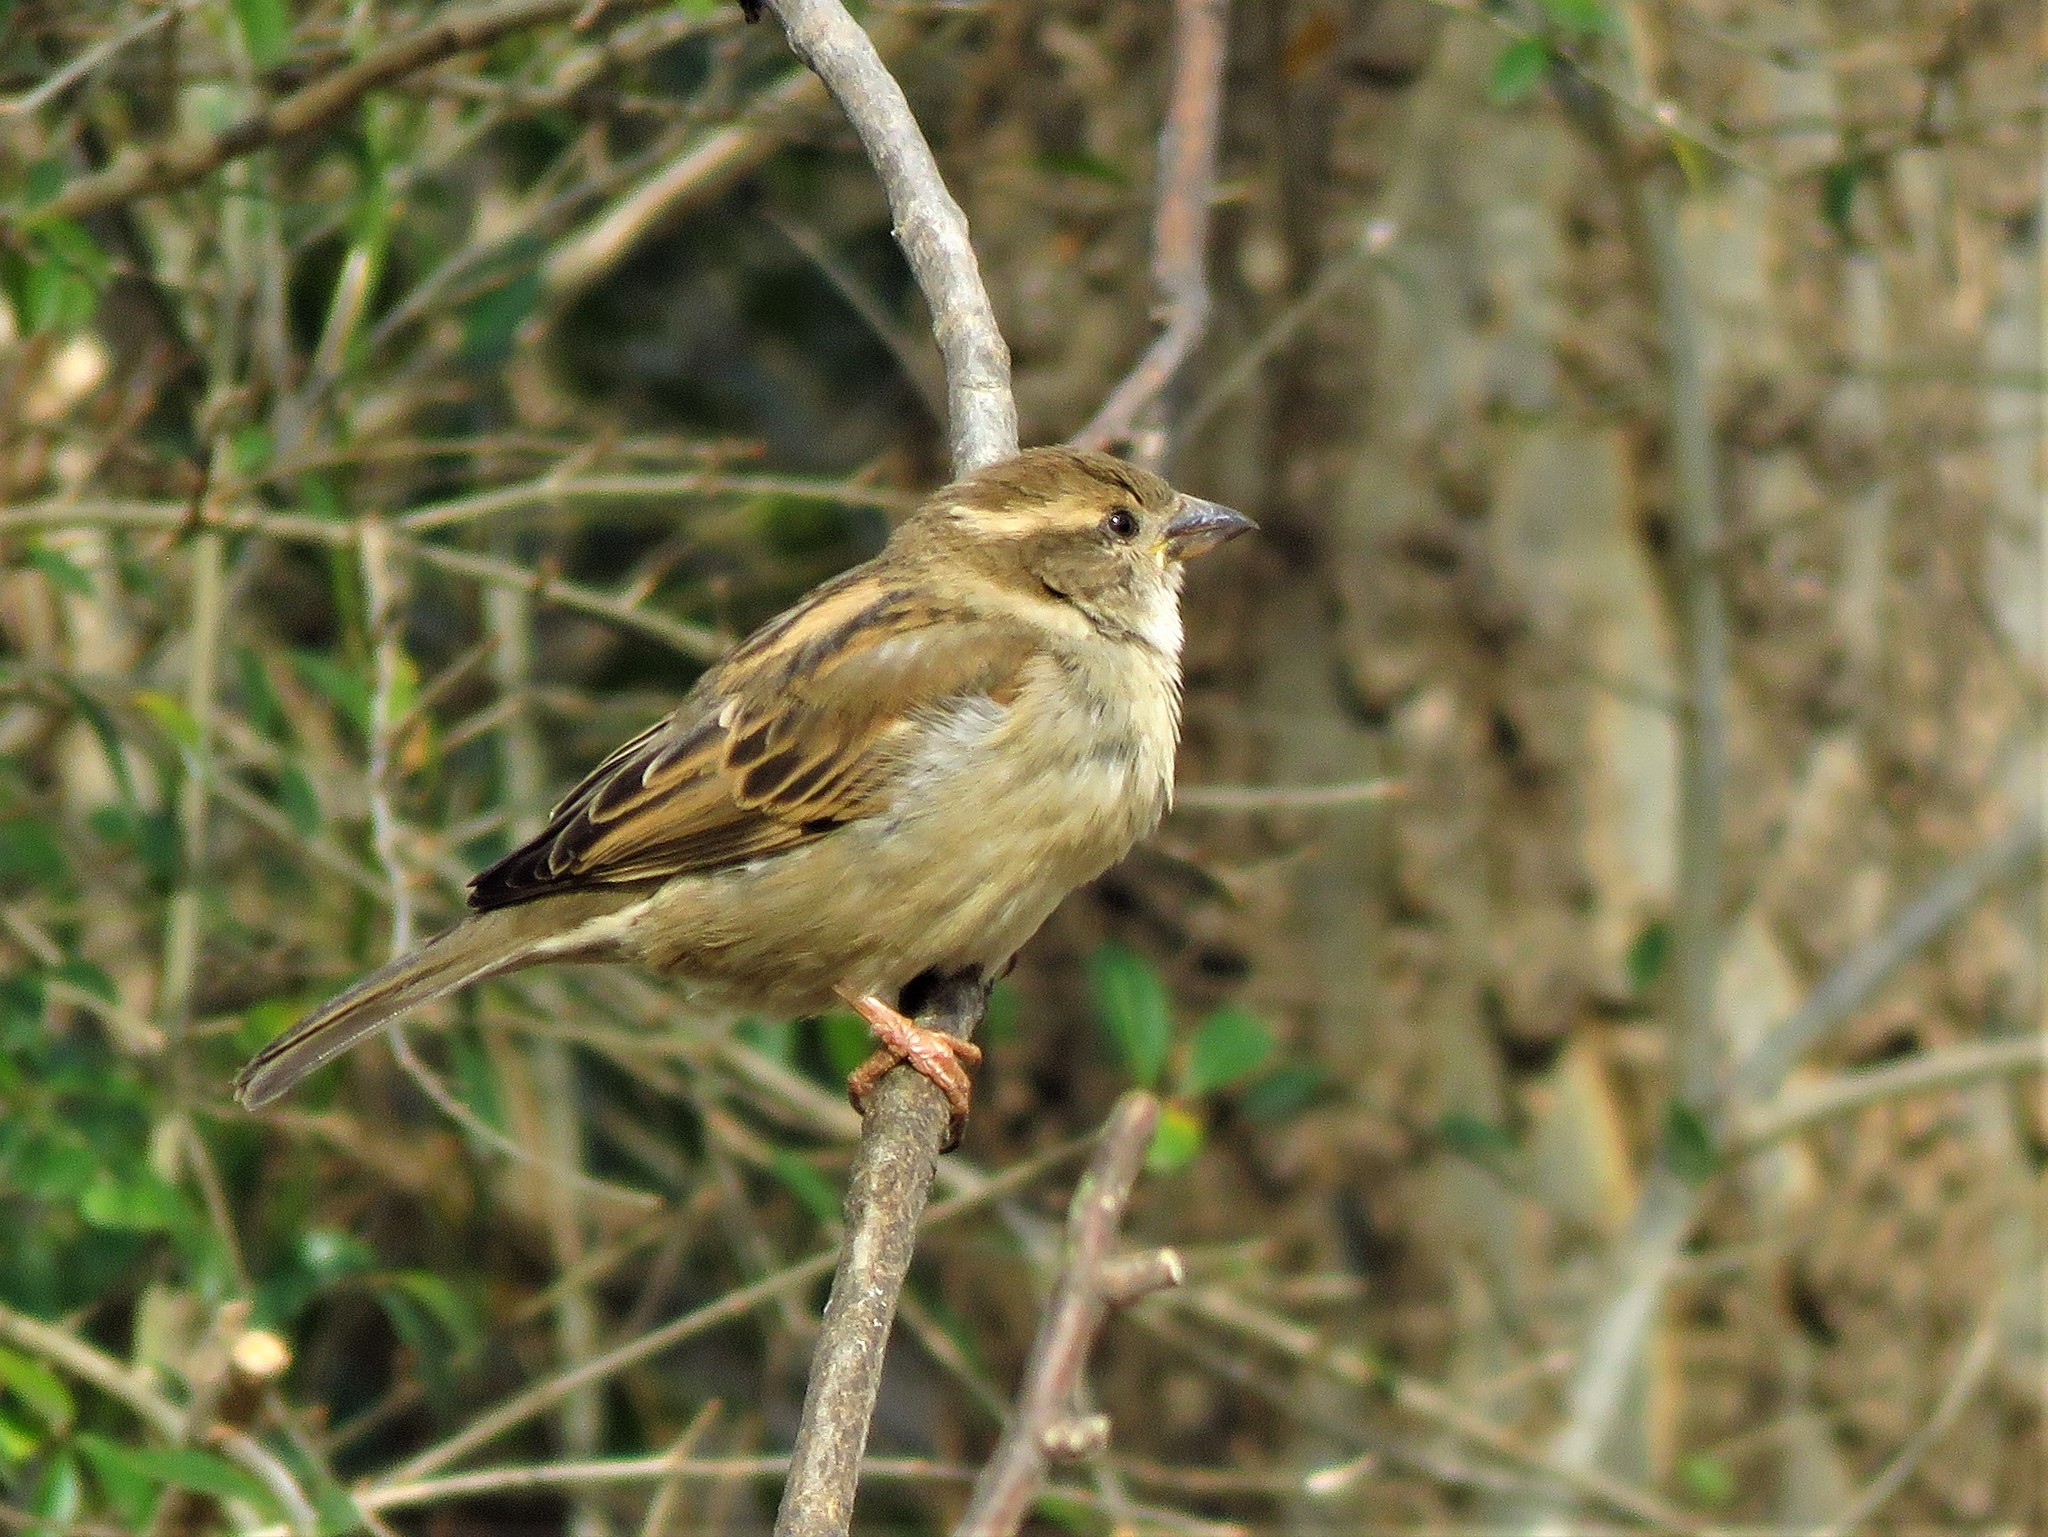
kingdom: Animalia
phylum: Chordata
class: Aves
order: Passeriformes
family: Passeridae
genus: Passer
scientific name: Passer domesticus
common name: House sparrow
